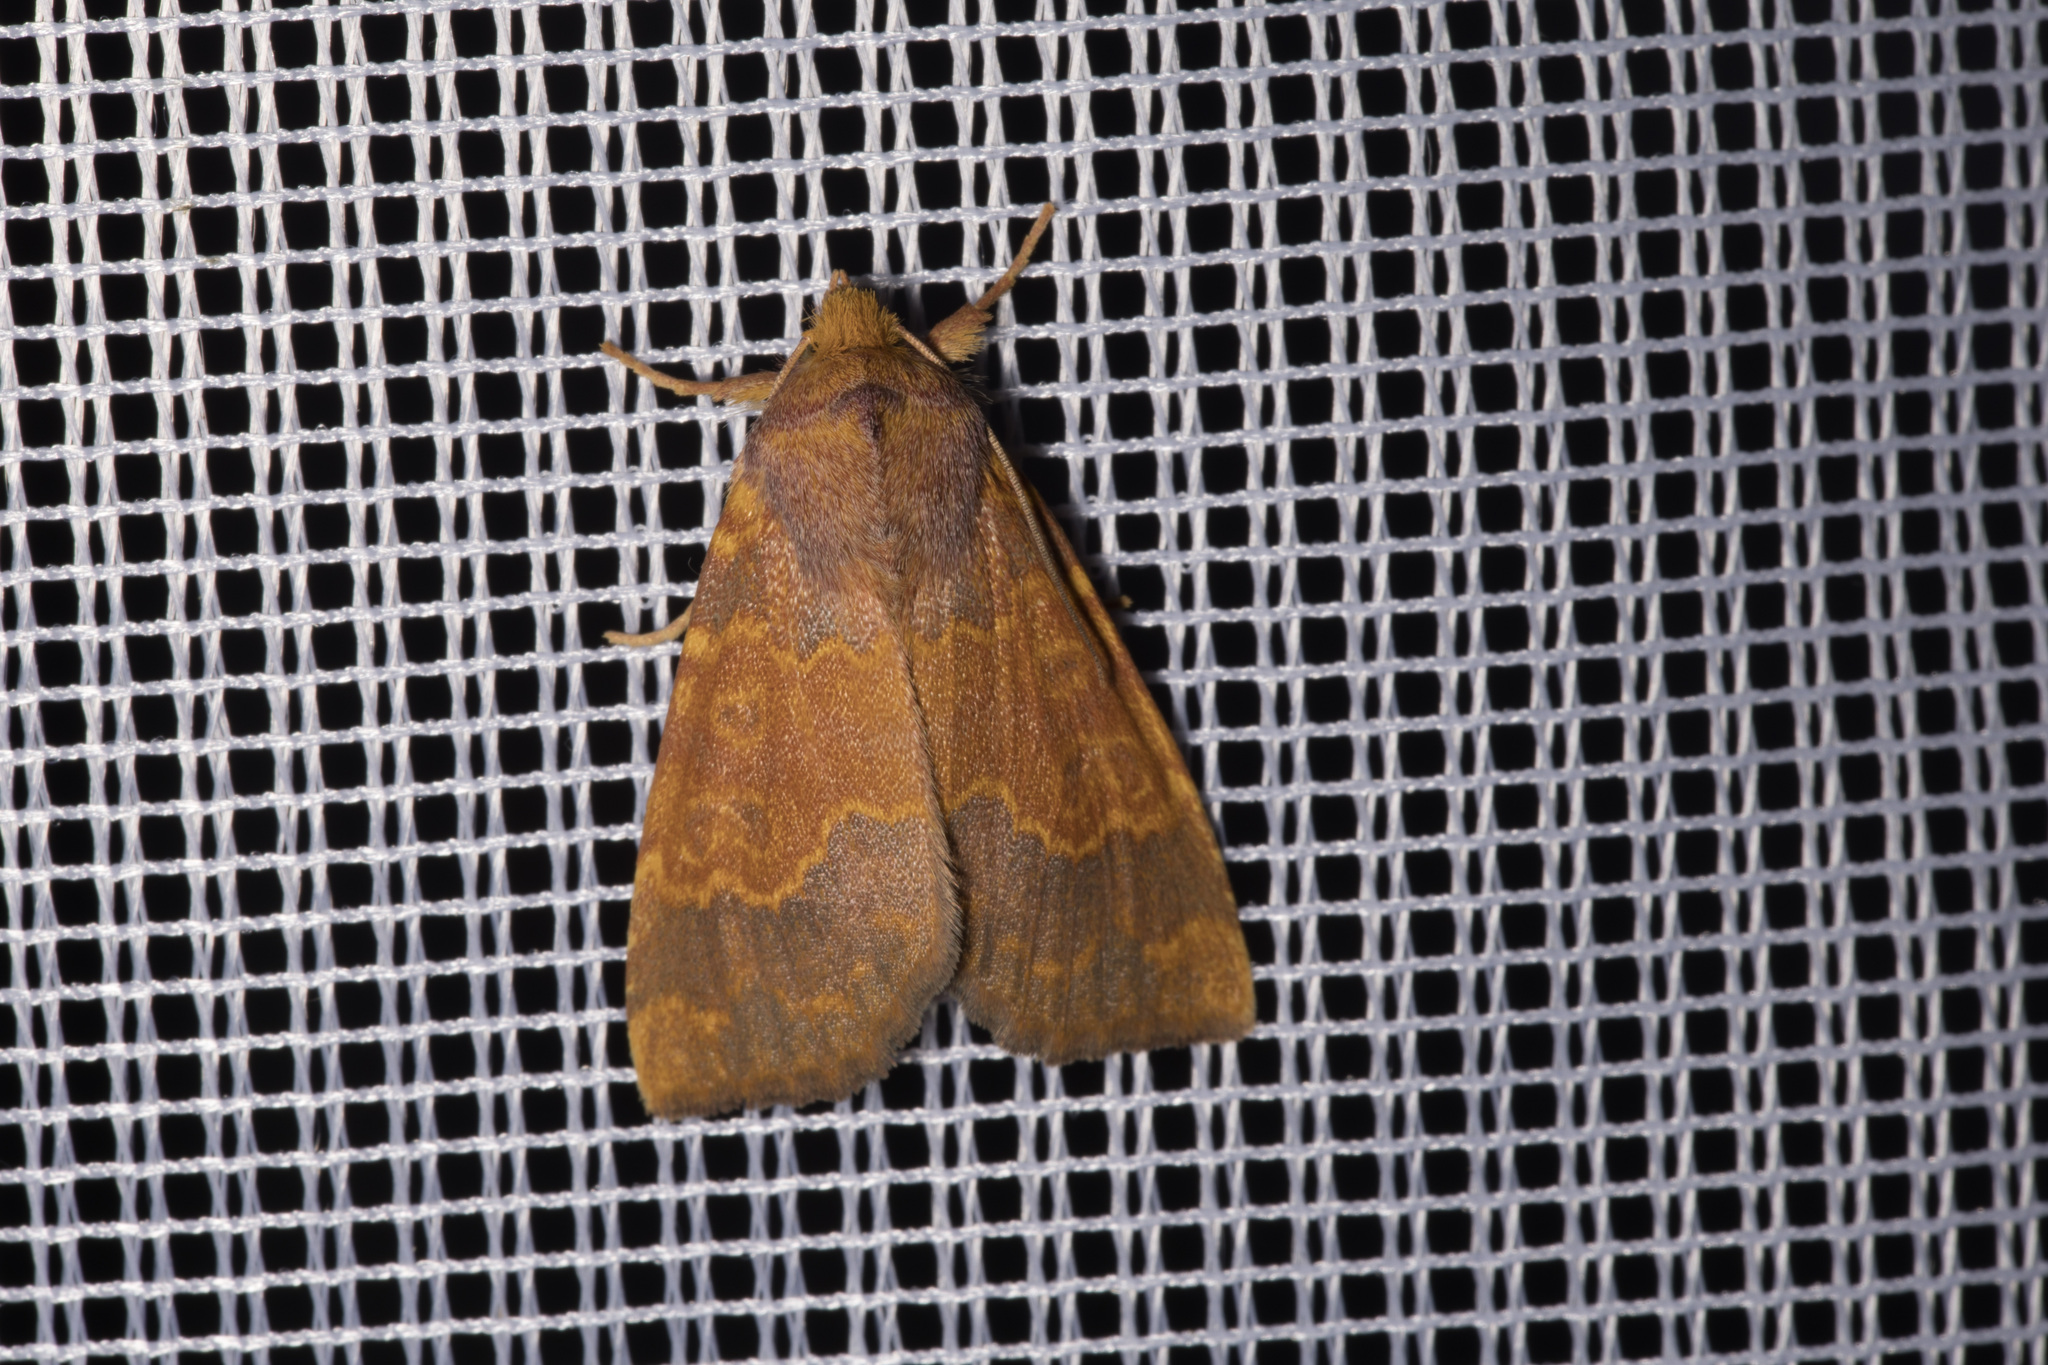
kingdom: Animalia
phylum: Arthropoda
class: Insecta
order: Lepidoptera
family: Noctuidae
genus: Tiliacea
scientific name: Tiliacea aurago
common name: Barred sallow
